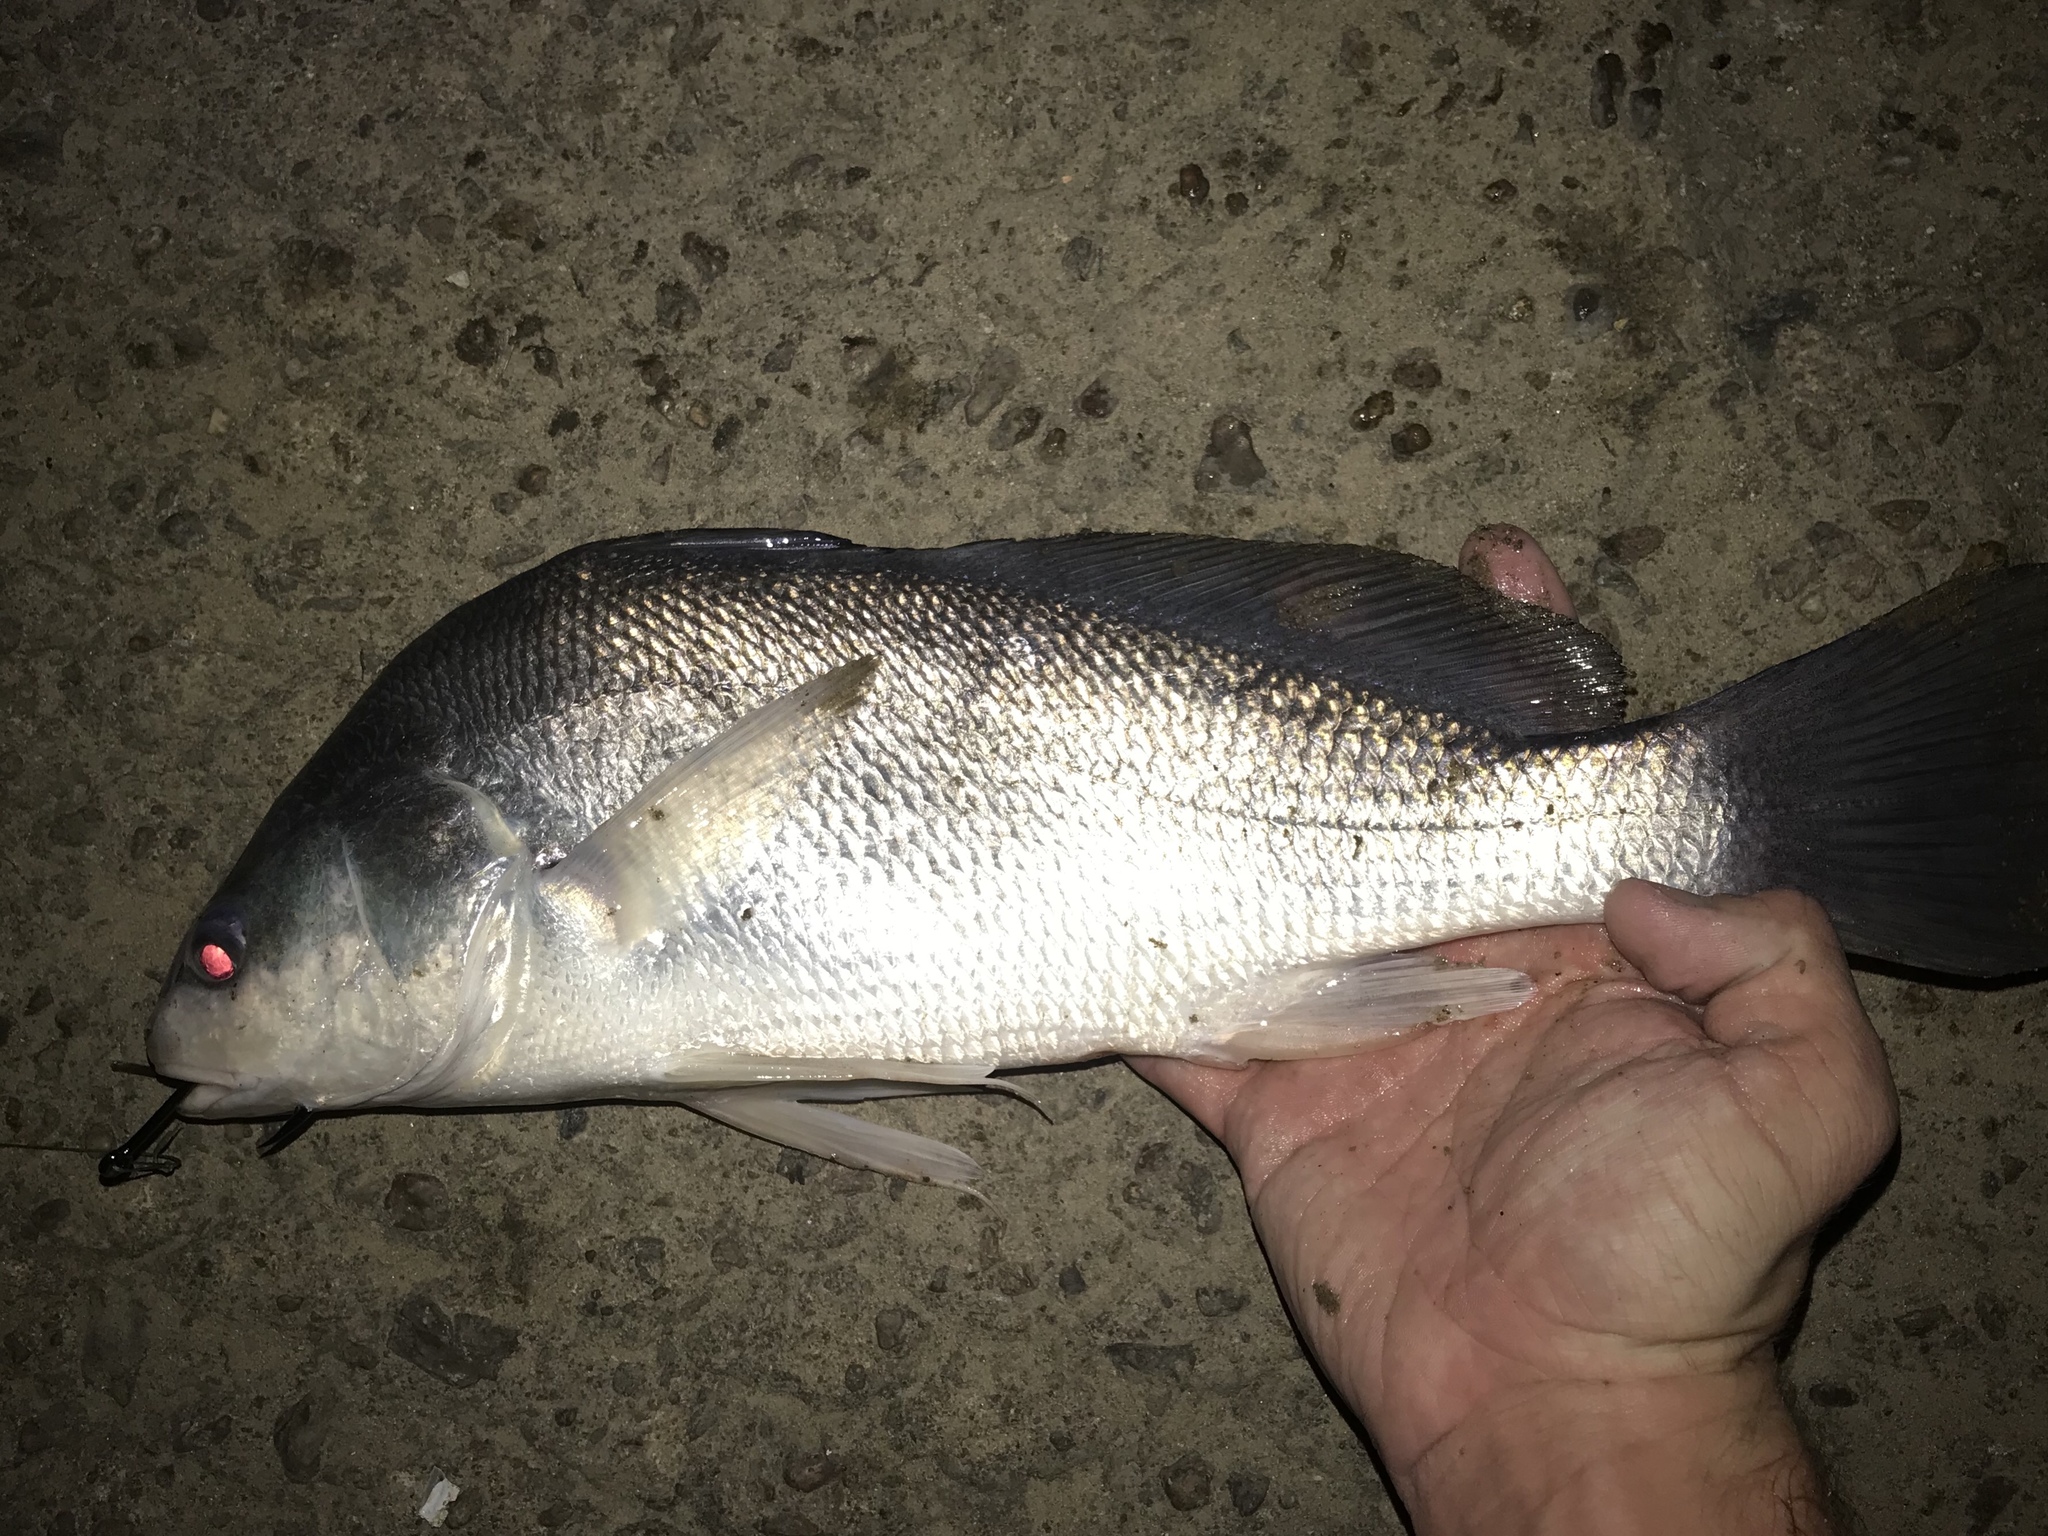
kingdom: Animalia
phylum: Chordata
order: Perciformes
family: Sciaenidae
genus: Aplodinotus
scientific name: Aplodinotus grunniens
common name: Freshwater drum
